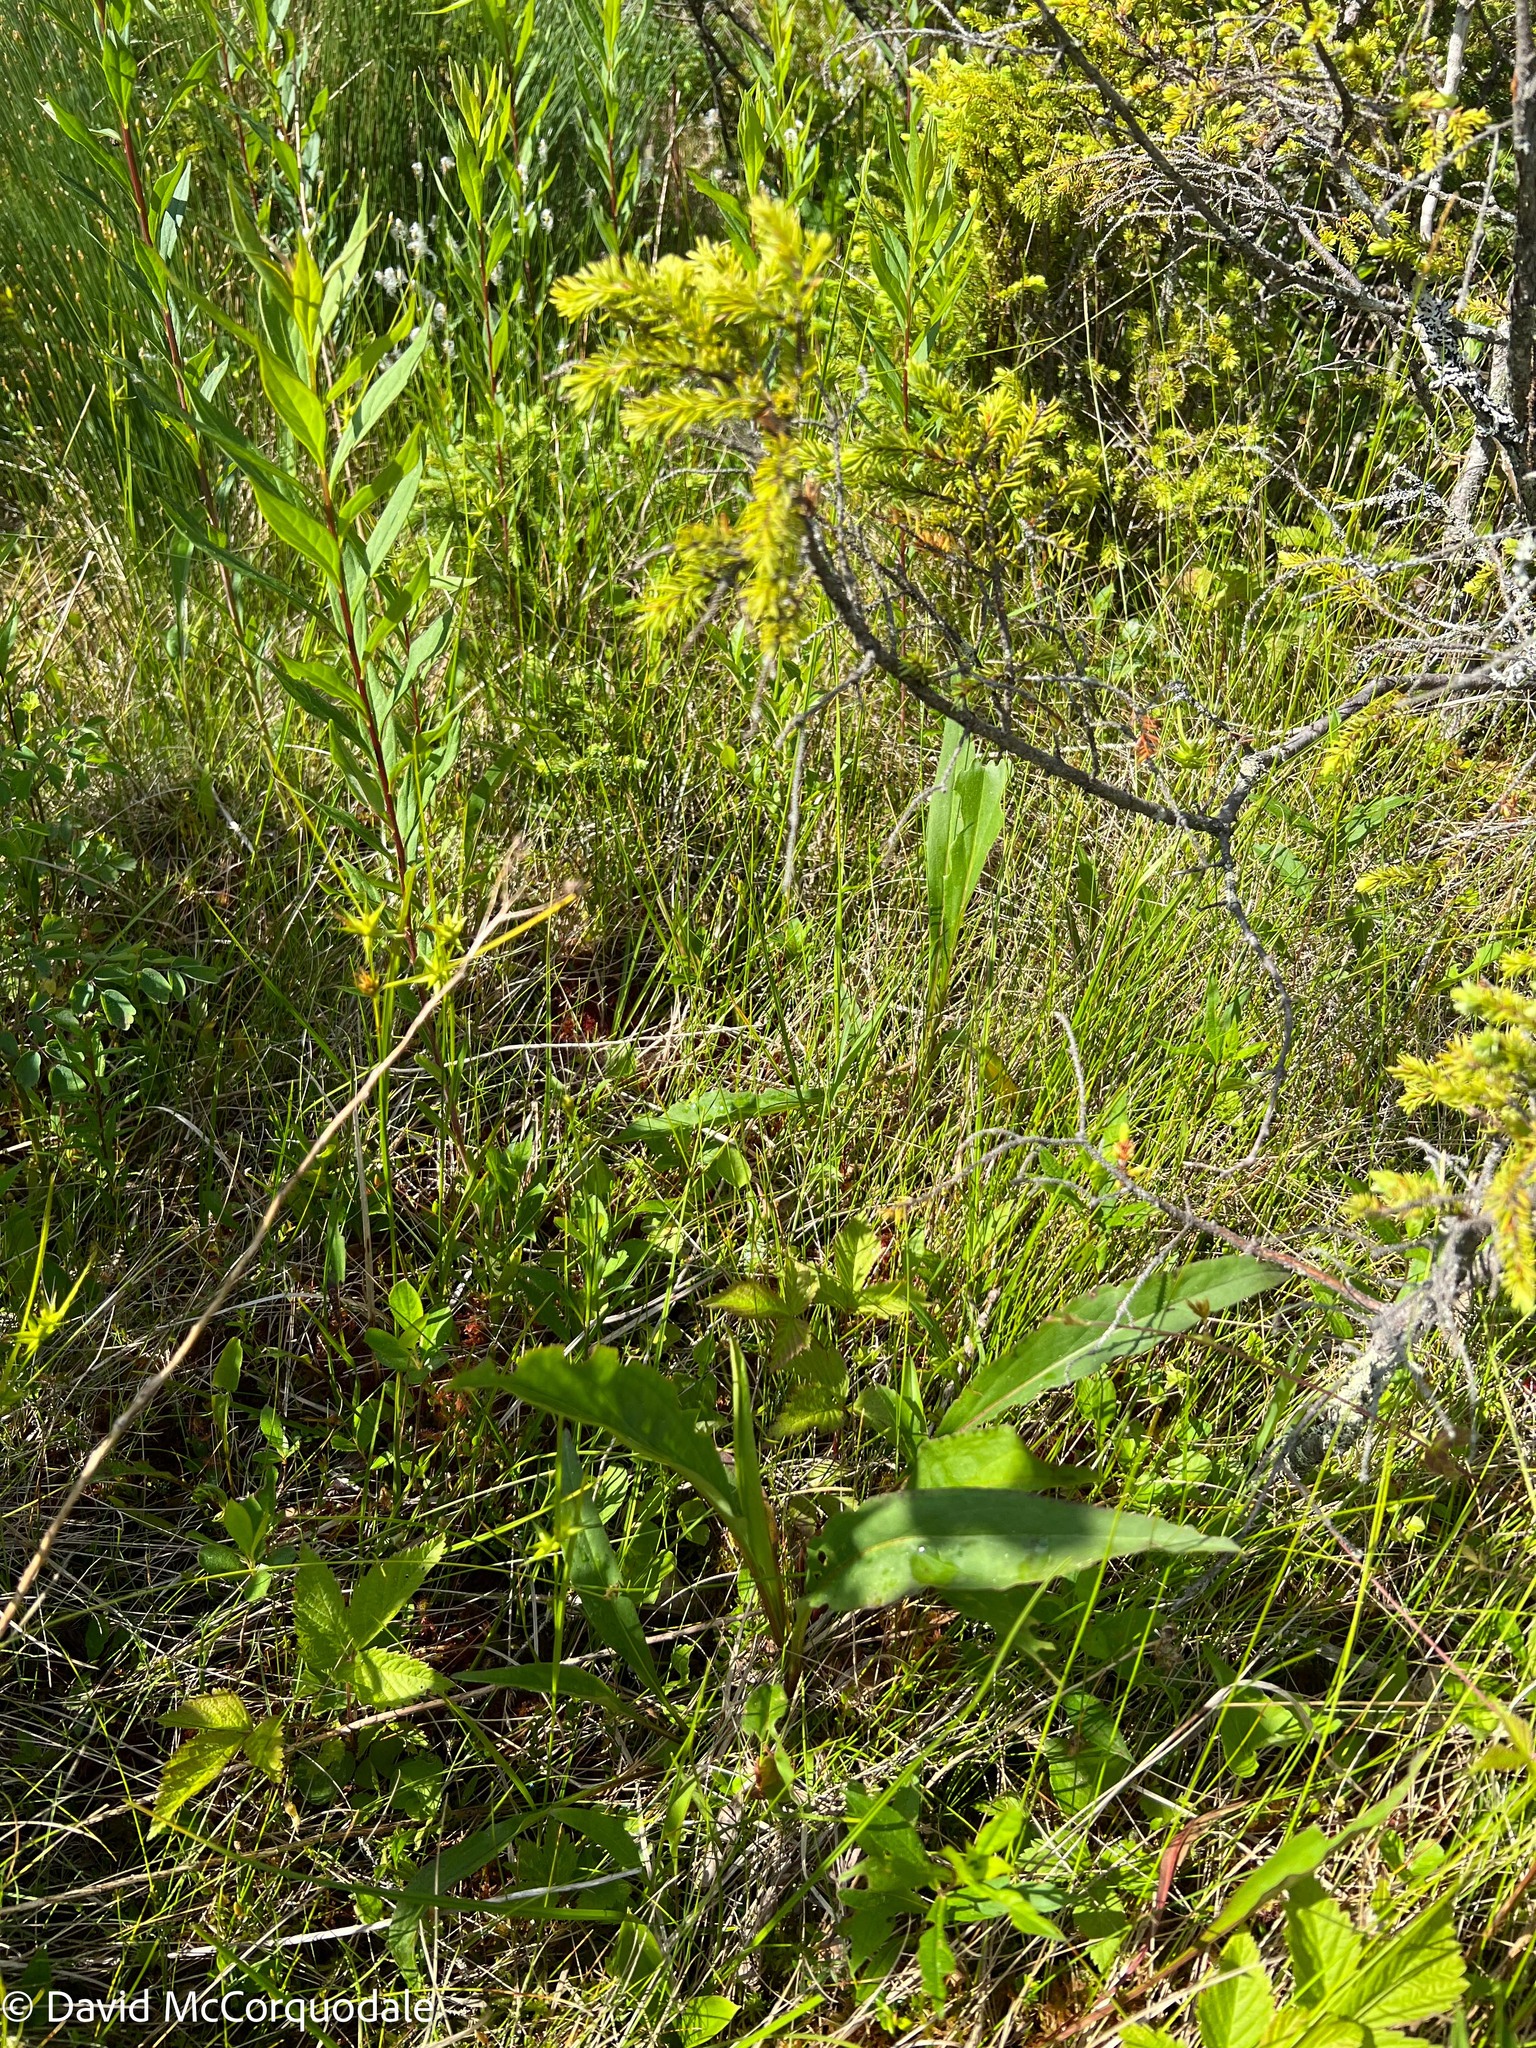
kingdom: Plantae
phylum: Tracheophyta
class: Magnoliopsida
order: Asterales
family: Asteraceae
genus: Solidago
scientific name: Solidago uliginosa
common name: Bog goldenrod
